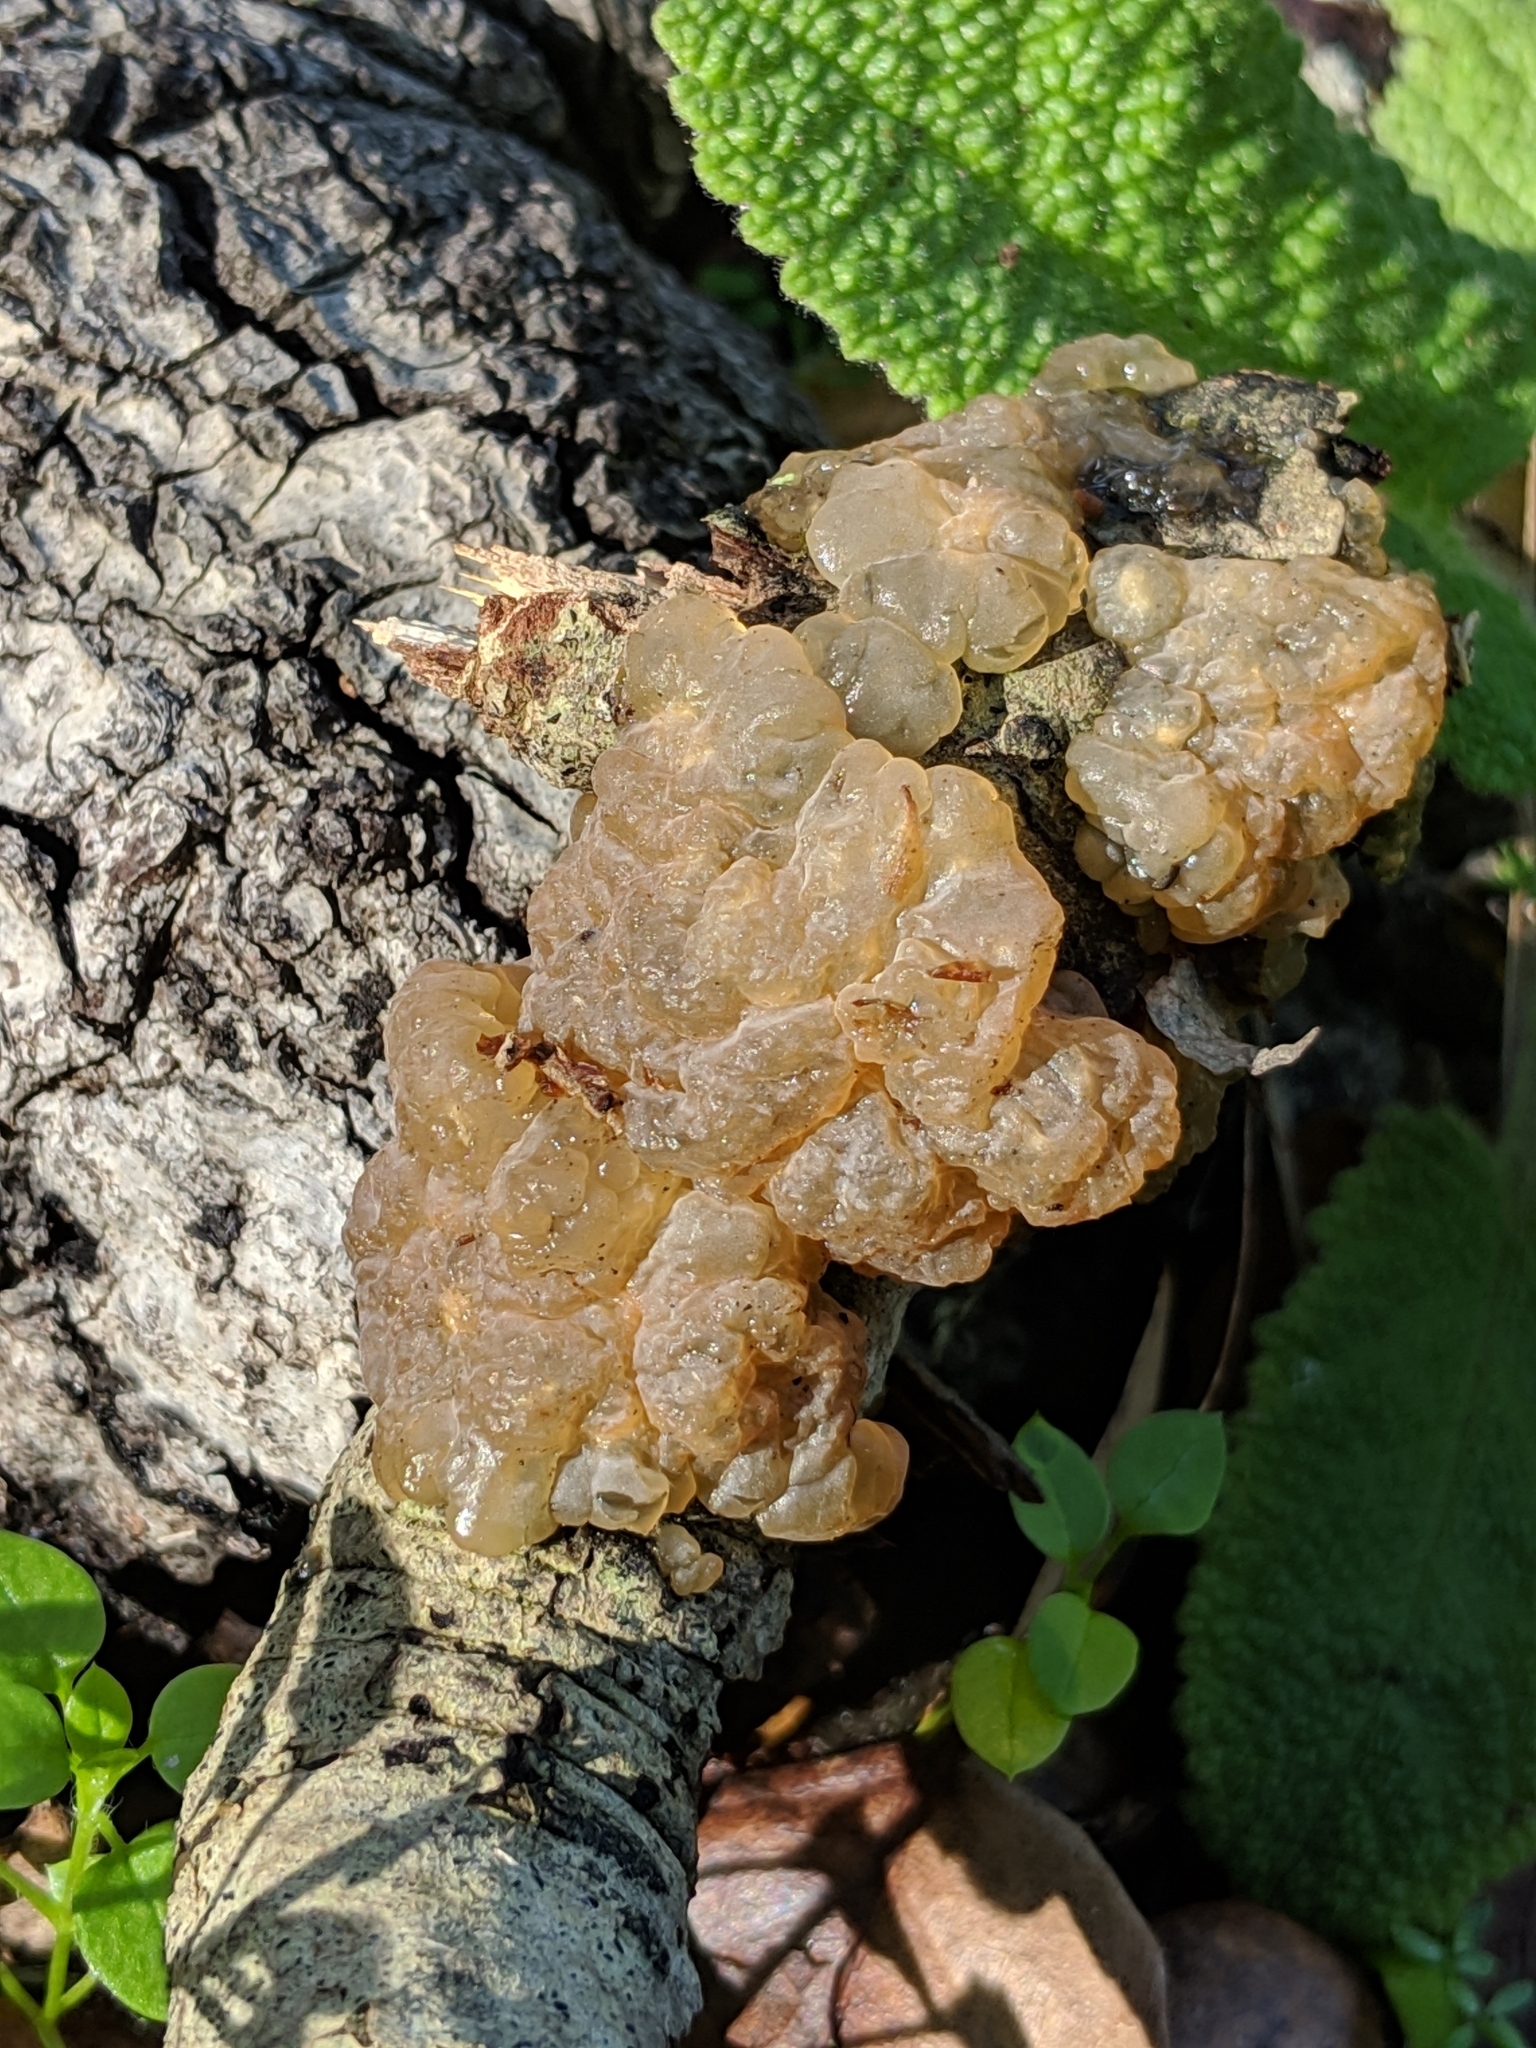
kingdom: Fungi
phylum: Basidiomycota
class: Agaricomycetes
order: Auriculariales
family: Hyaloriaceae
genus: Myxarium
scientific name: Myxarium nucleatum
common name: Crystal brain fungus
